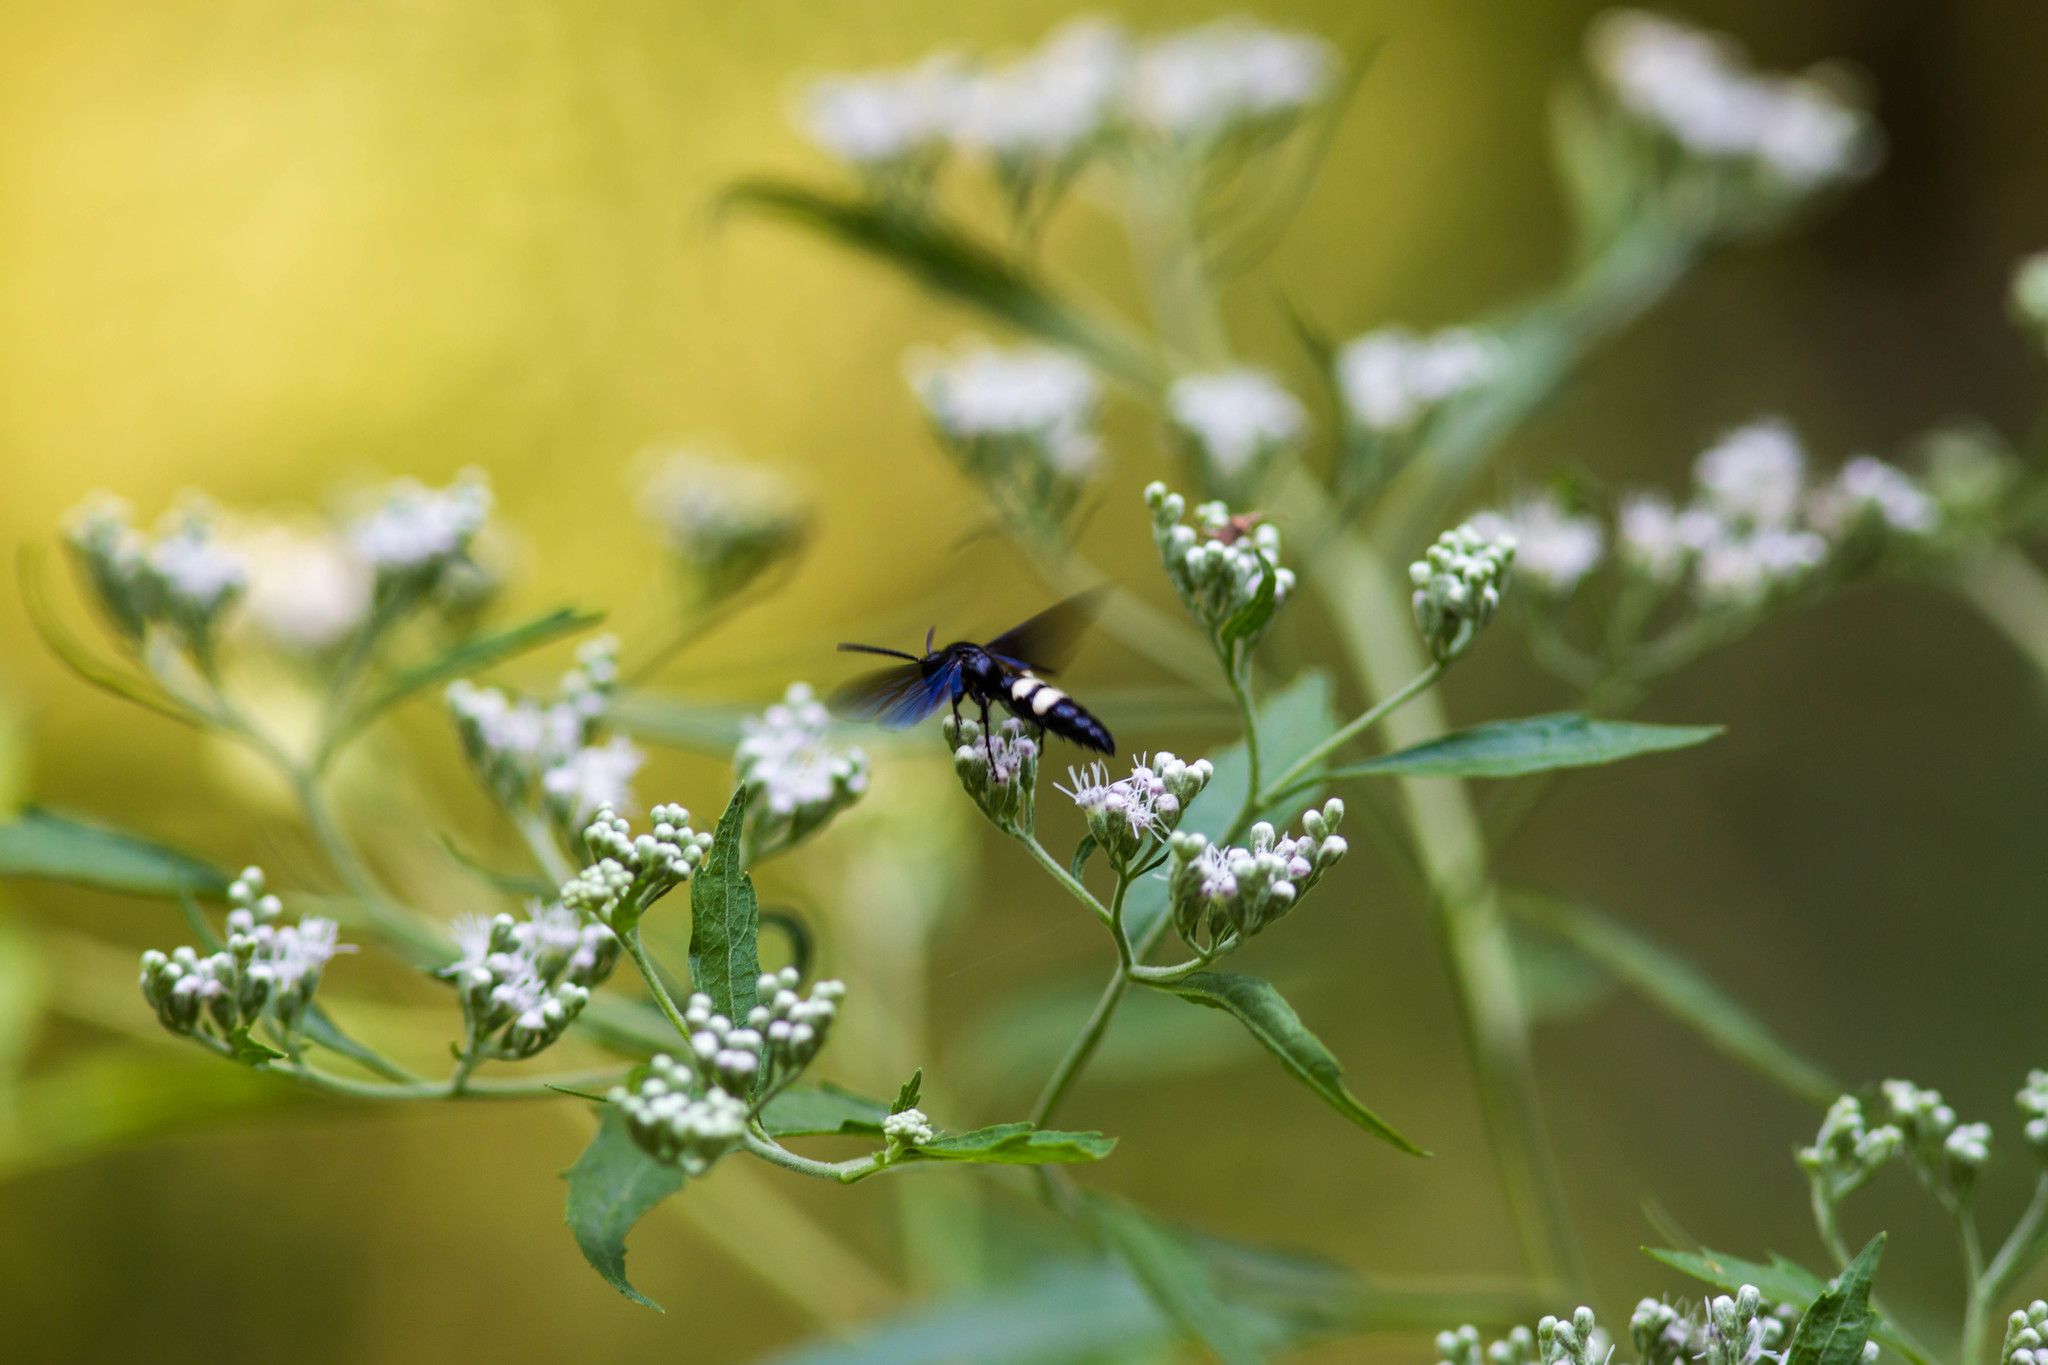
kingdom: Animalia
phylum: Arthropoda
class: Insecta
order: Hymenoptera
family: Scoliidae
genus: Scolia
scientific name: Scolia bicincta
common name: Double-banded scoliid wasp
